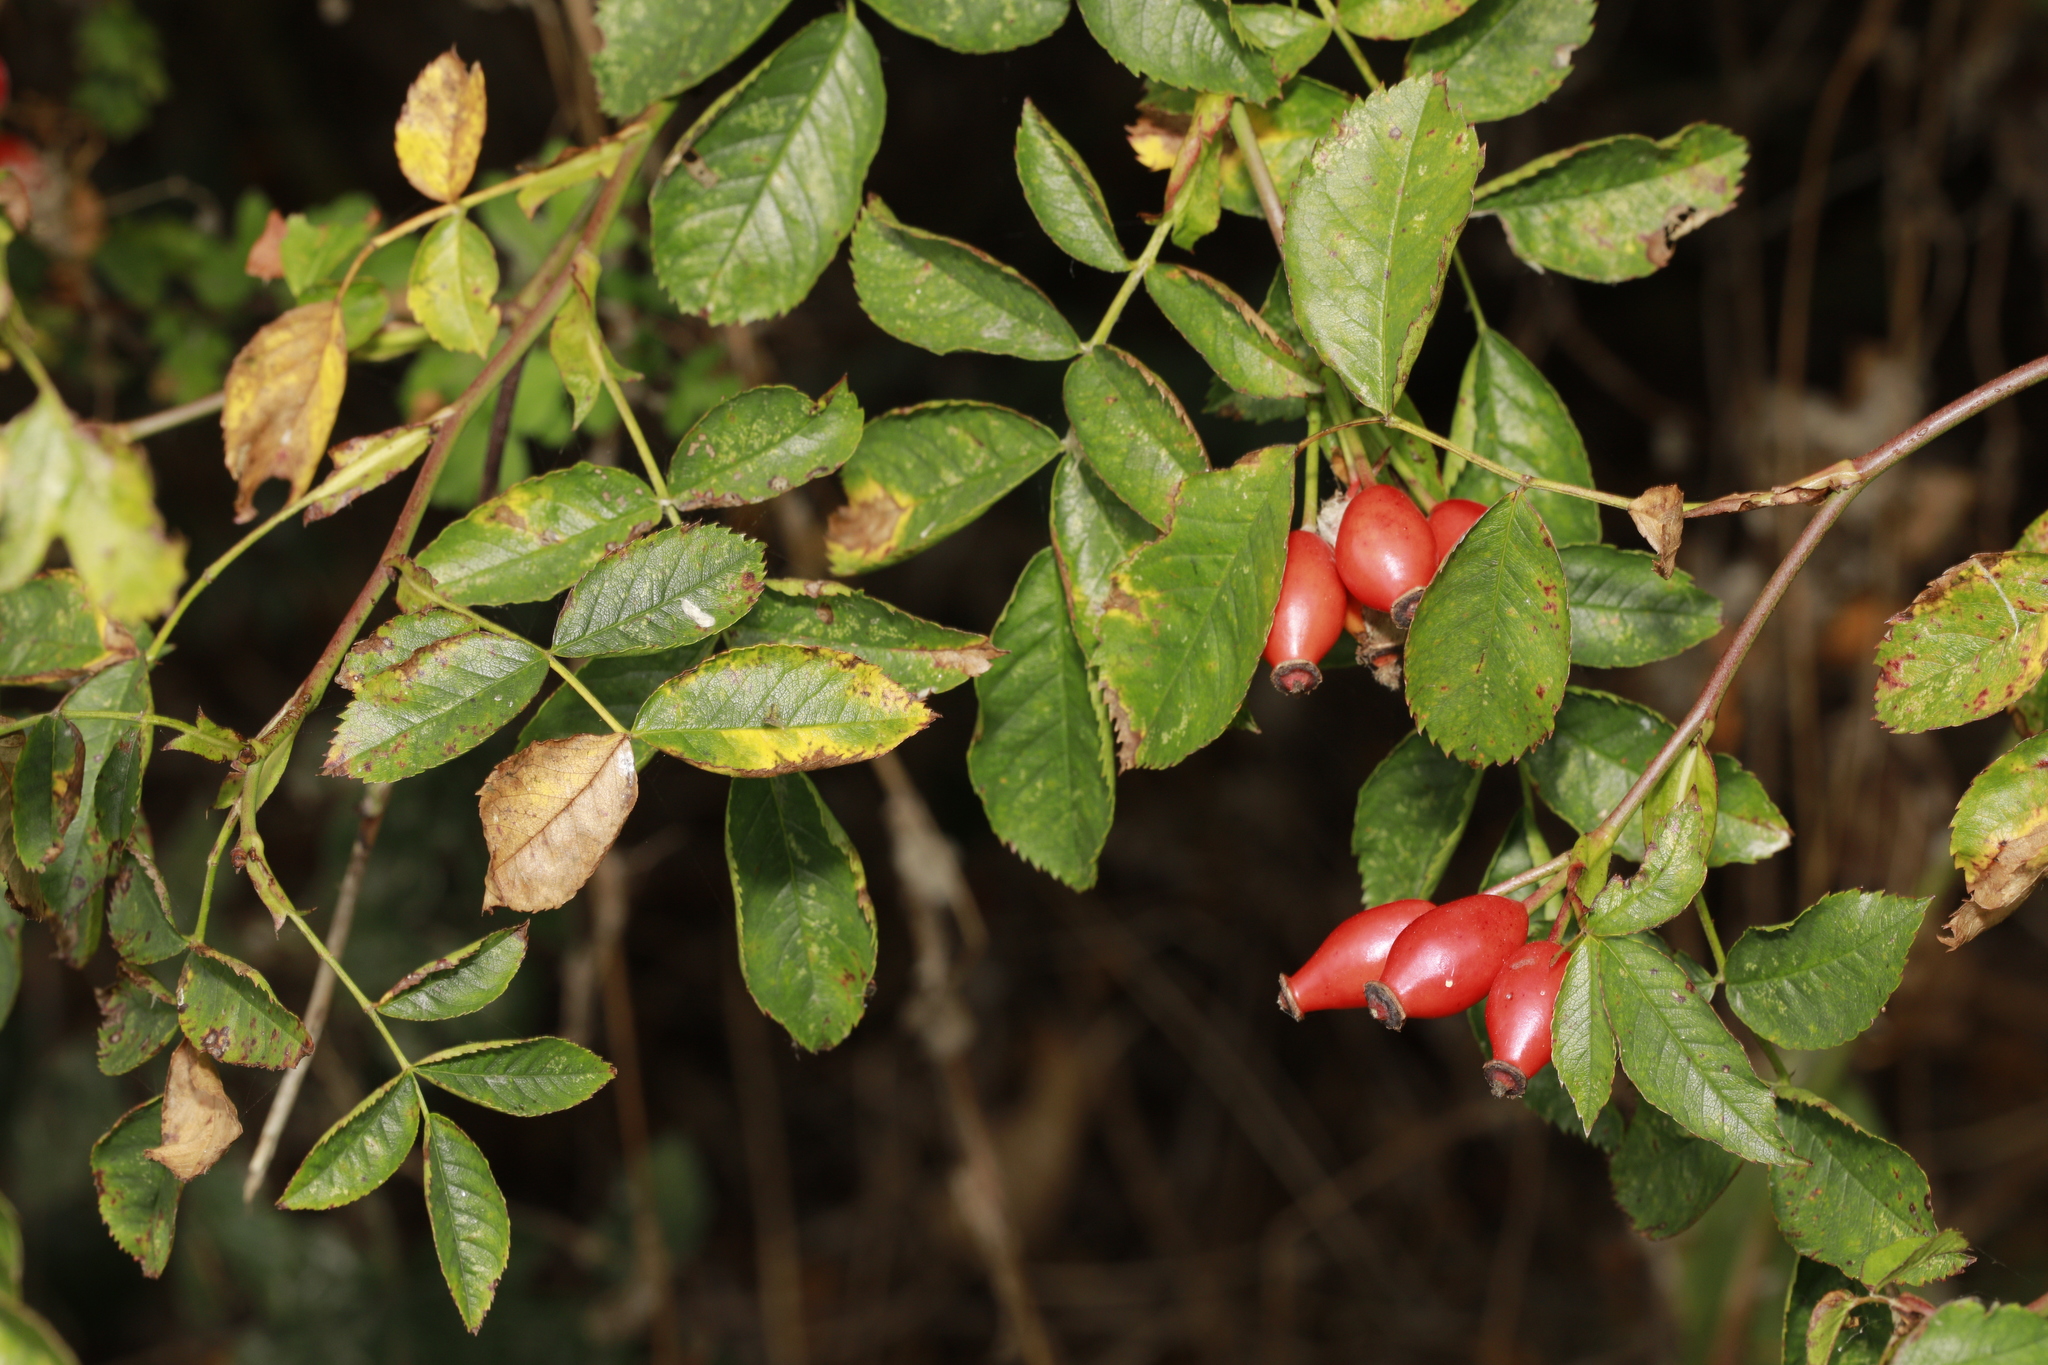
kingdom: Plantae
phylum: Tracheophyta
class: Magnoliopsida
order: Rosales
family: Rosaceae
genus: Rosa
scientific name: Rosa canina
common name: Dog rose
